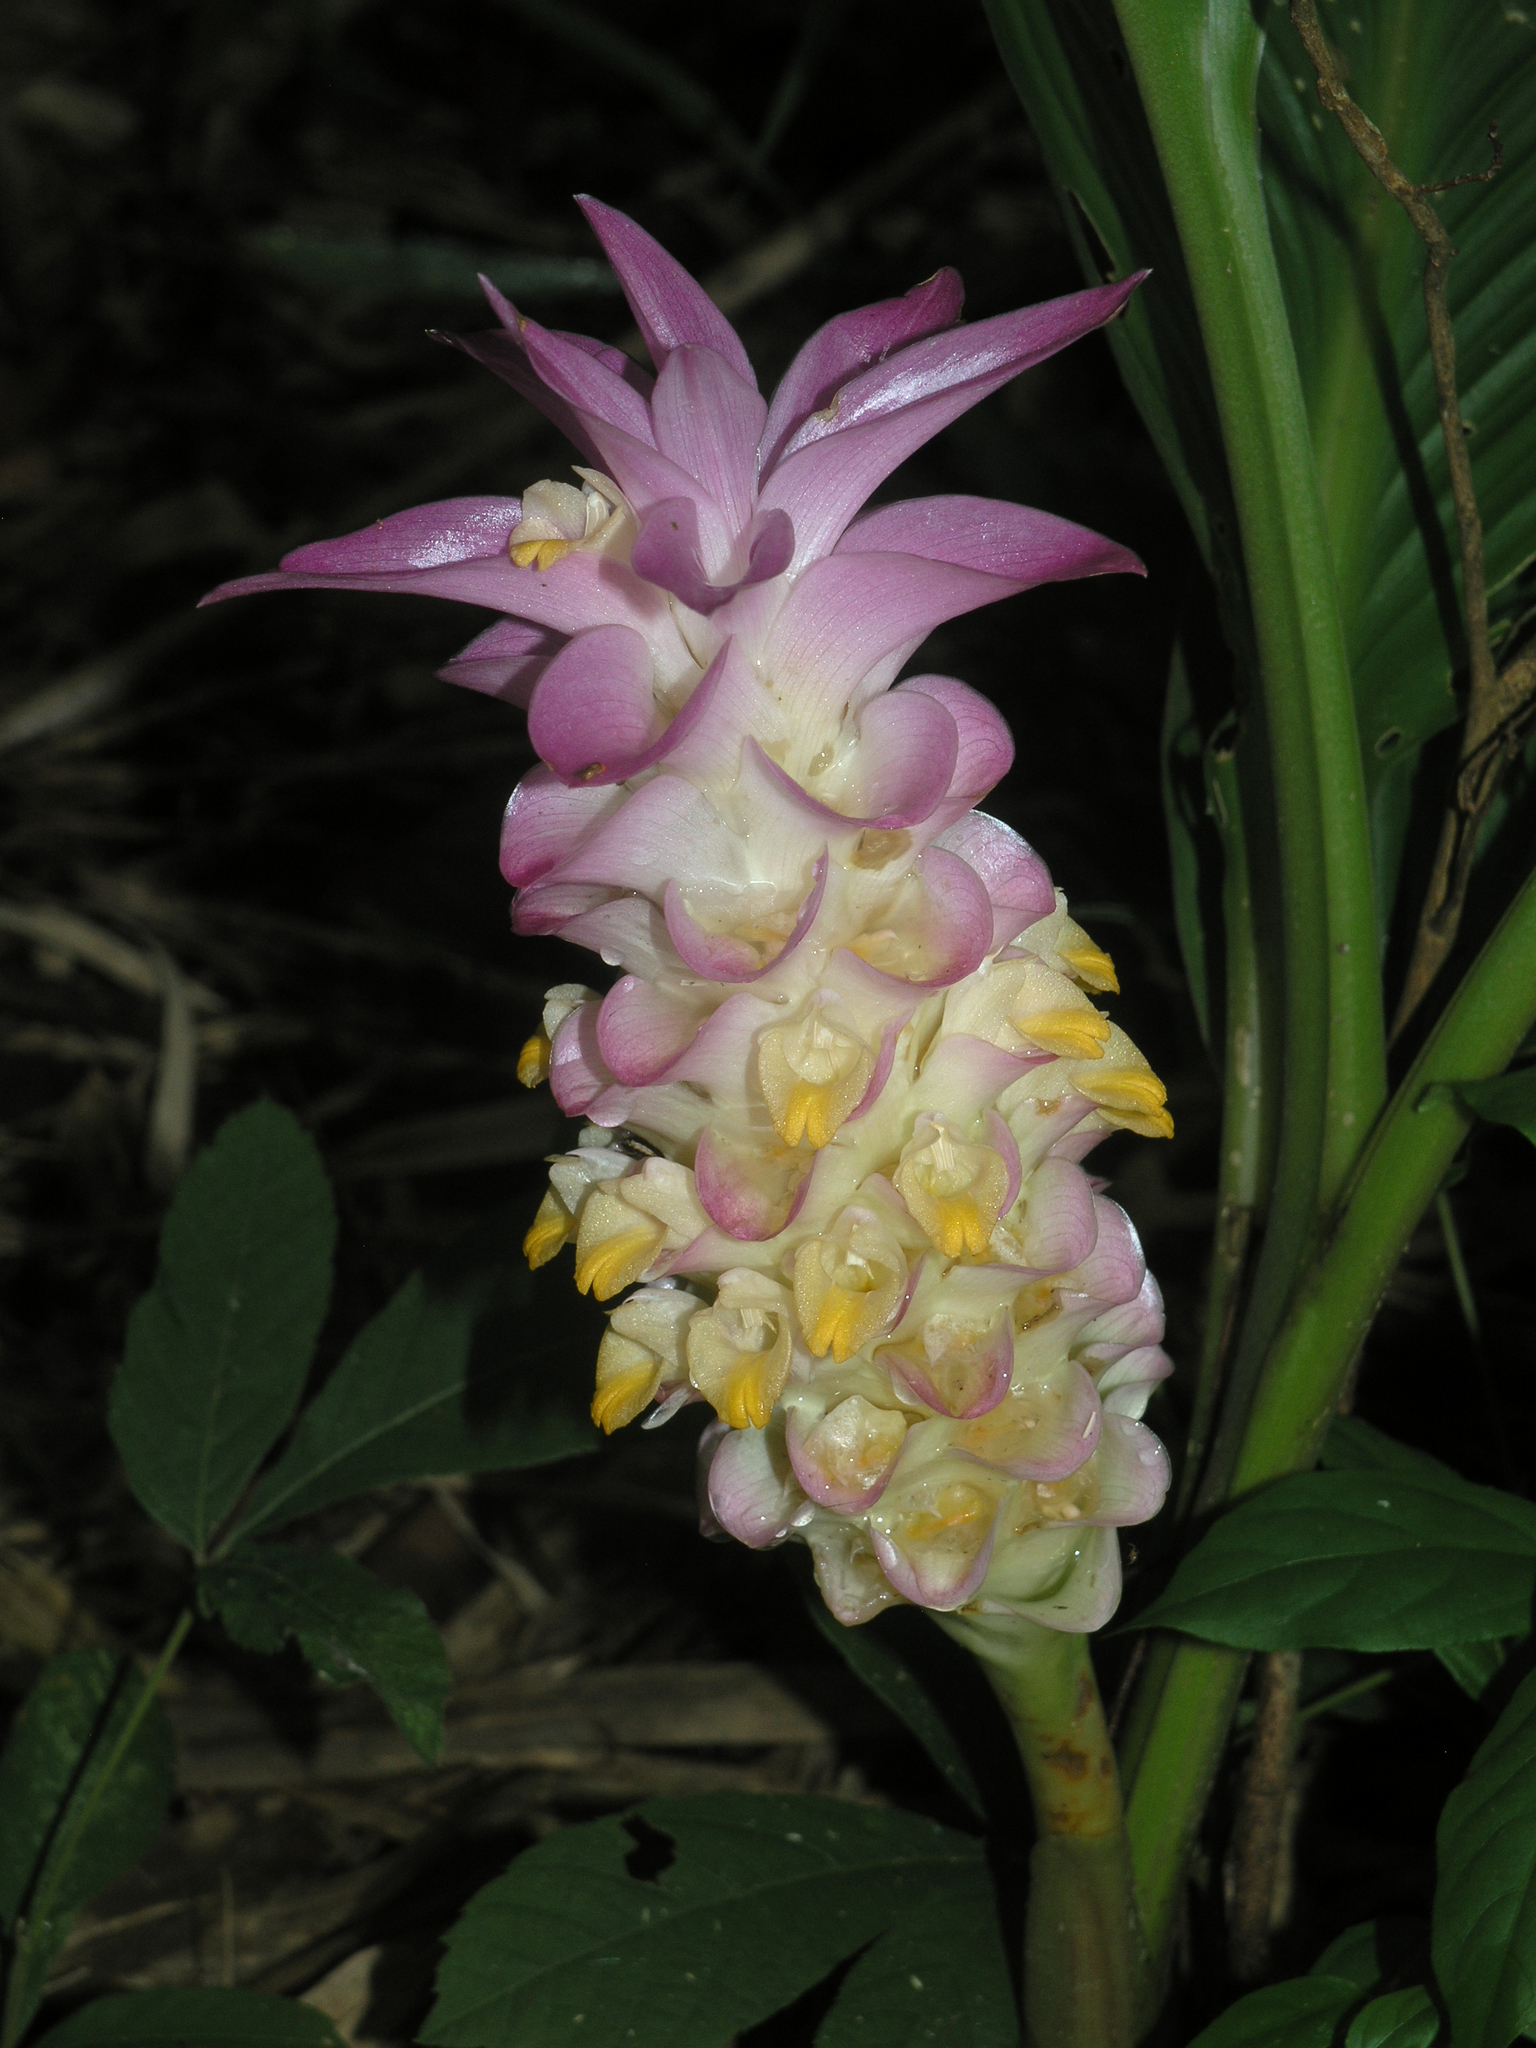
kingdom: Plantae
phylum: Tracheophyta
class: Liliopsida
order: Zingiberales
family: Zingiberaceae
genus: Curcuma
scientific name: Curcuma petiolata
